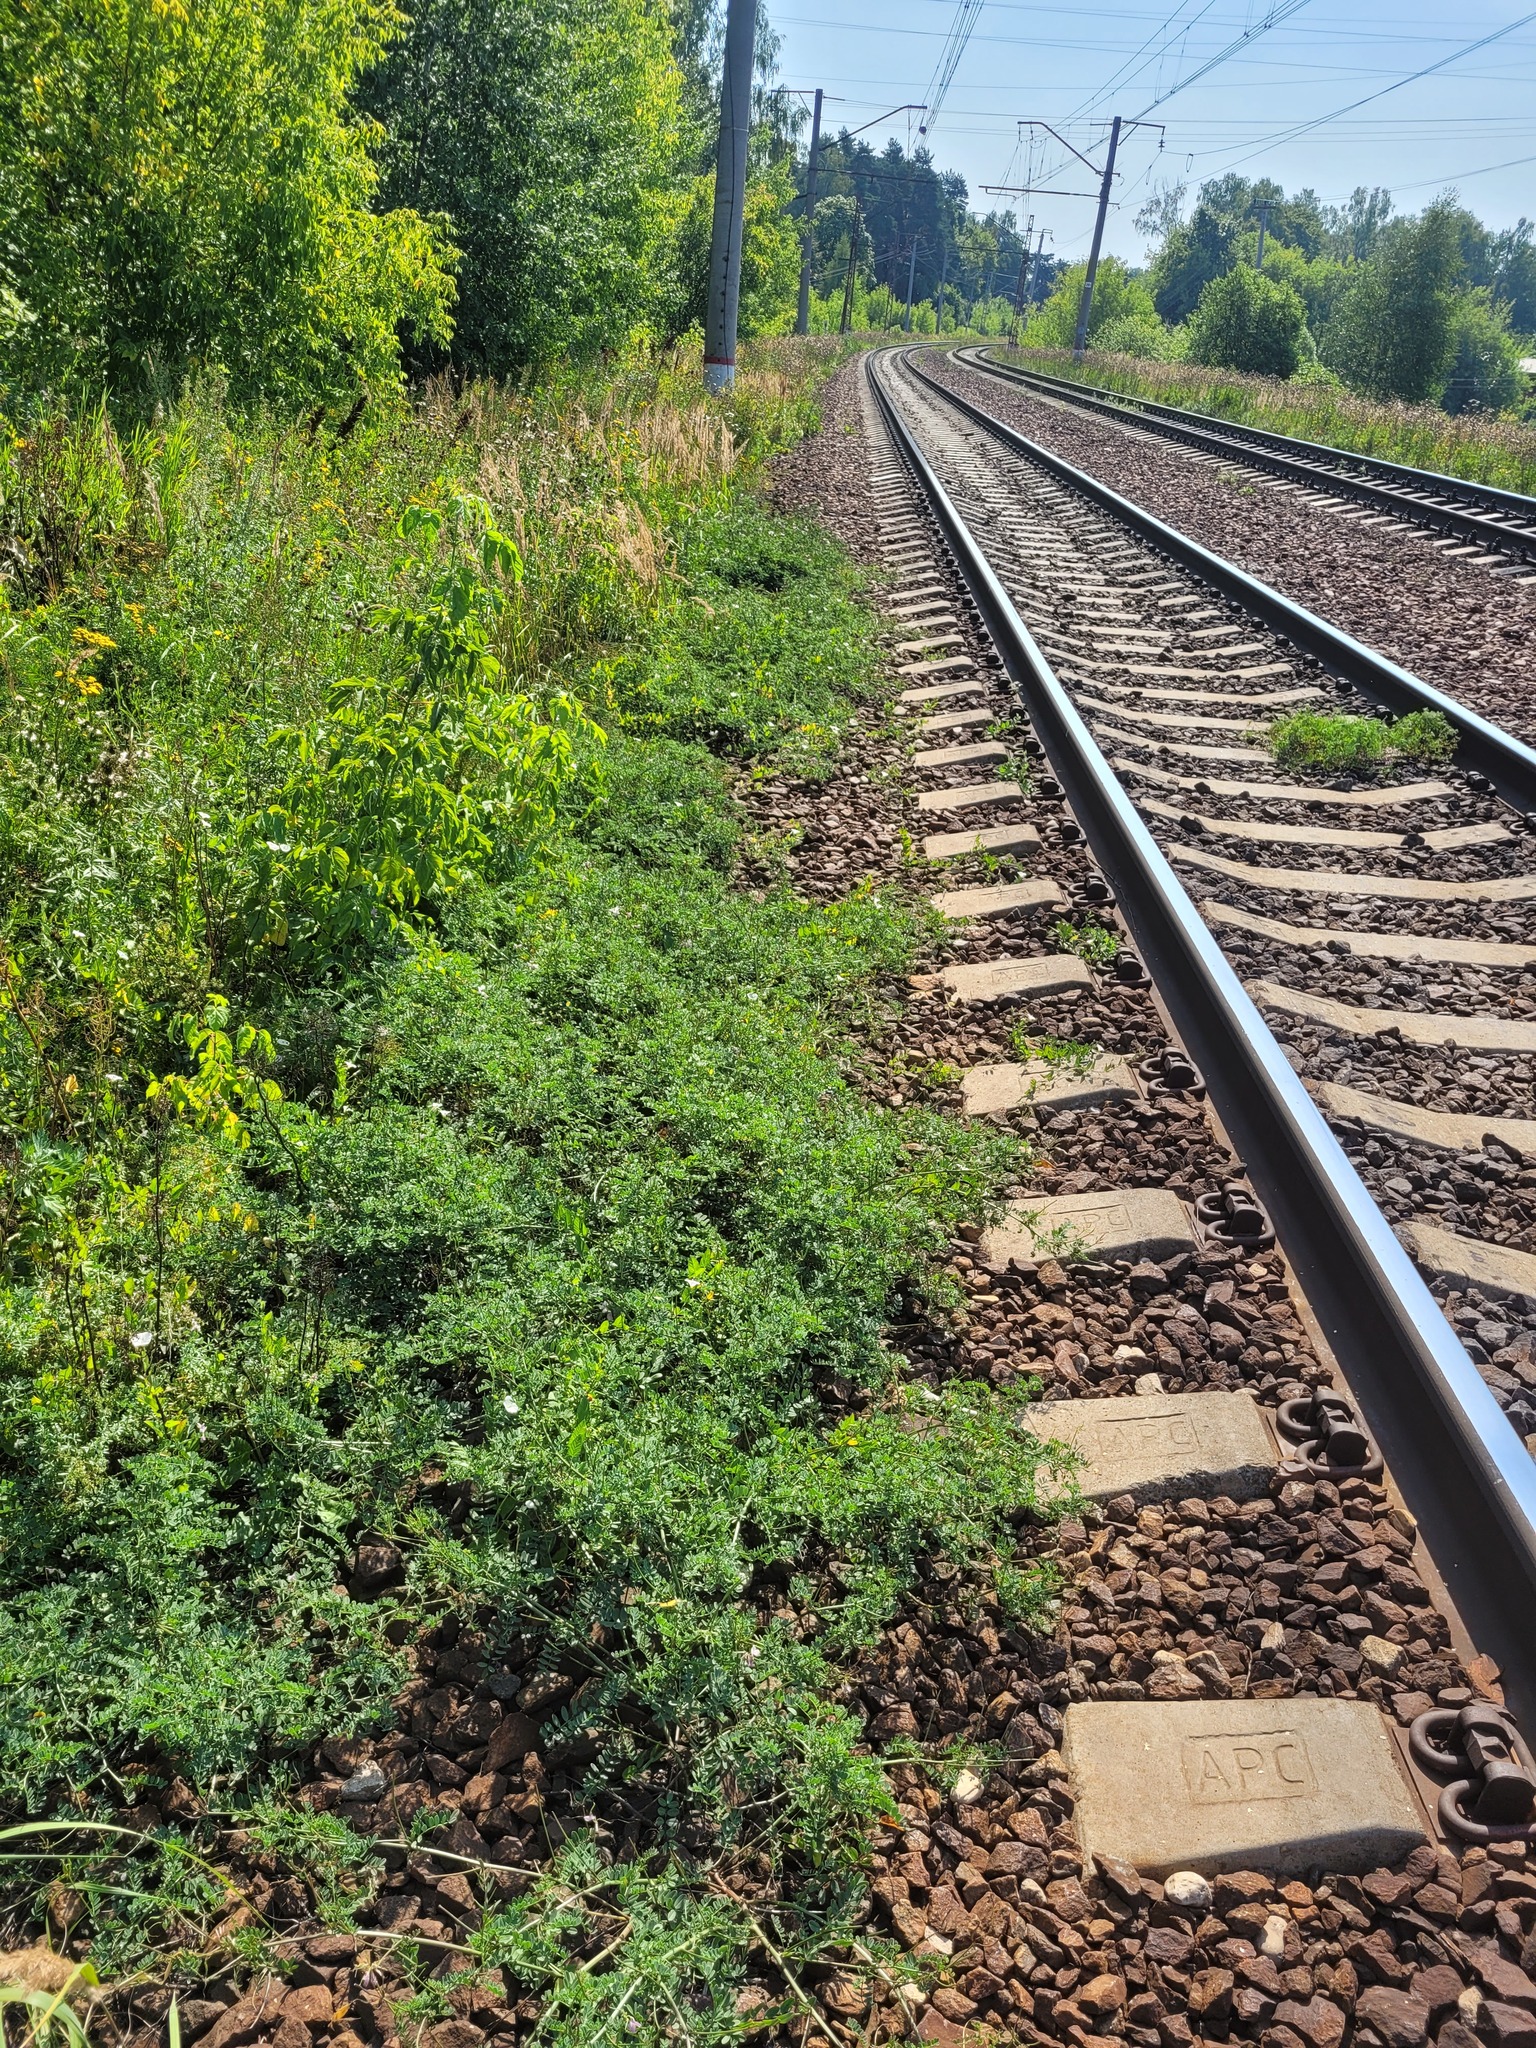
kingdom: Plantae
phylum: Tracheophyta
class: Magnoliopsida
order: Fabales
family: Fabaceae
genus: Coronilla
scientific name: Coronilla varia
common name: Crownvetch
